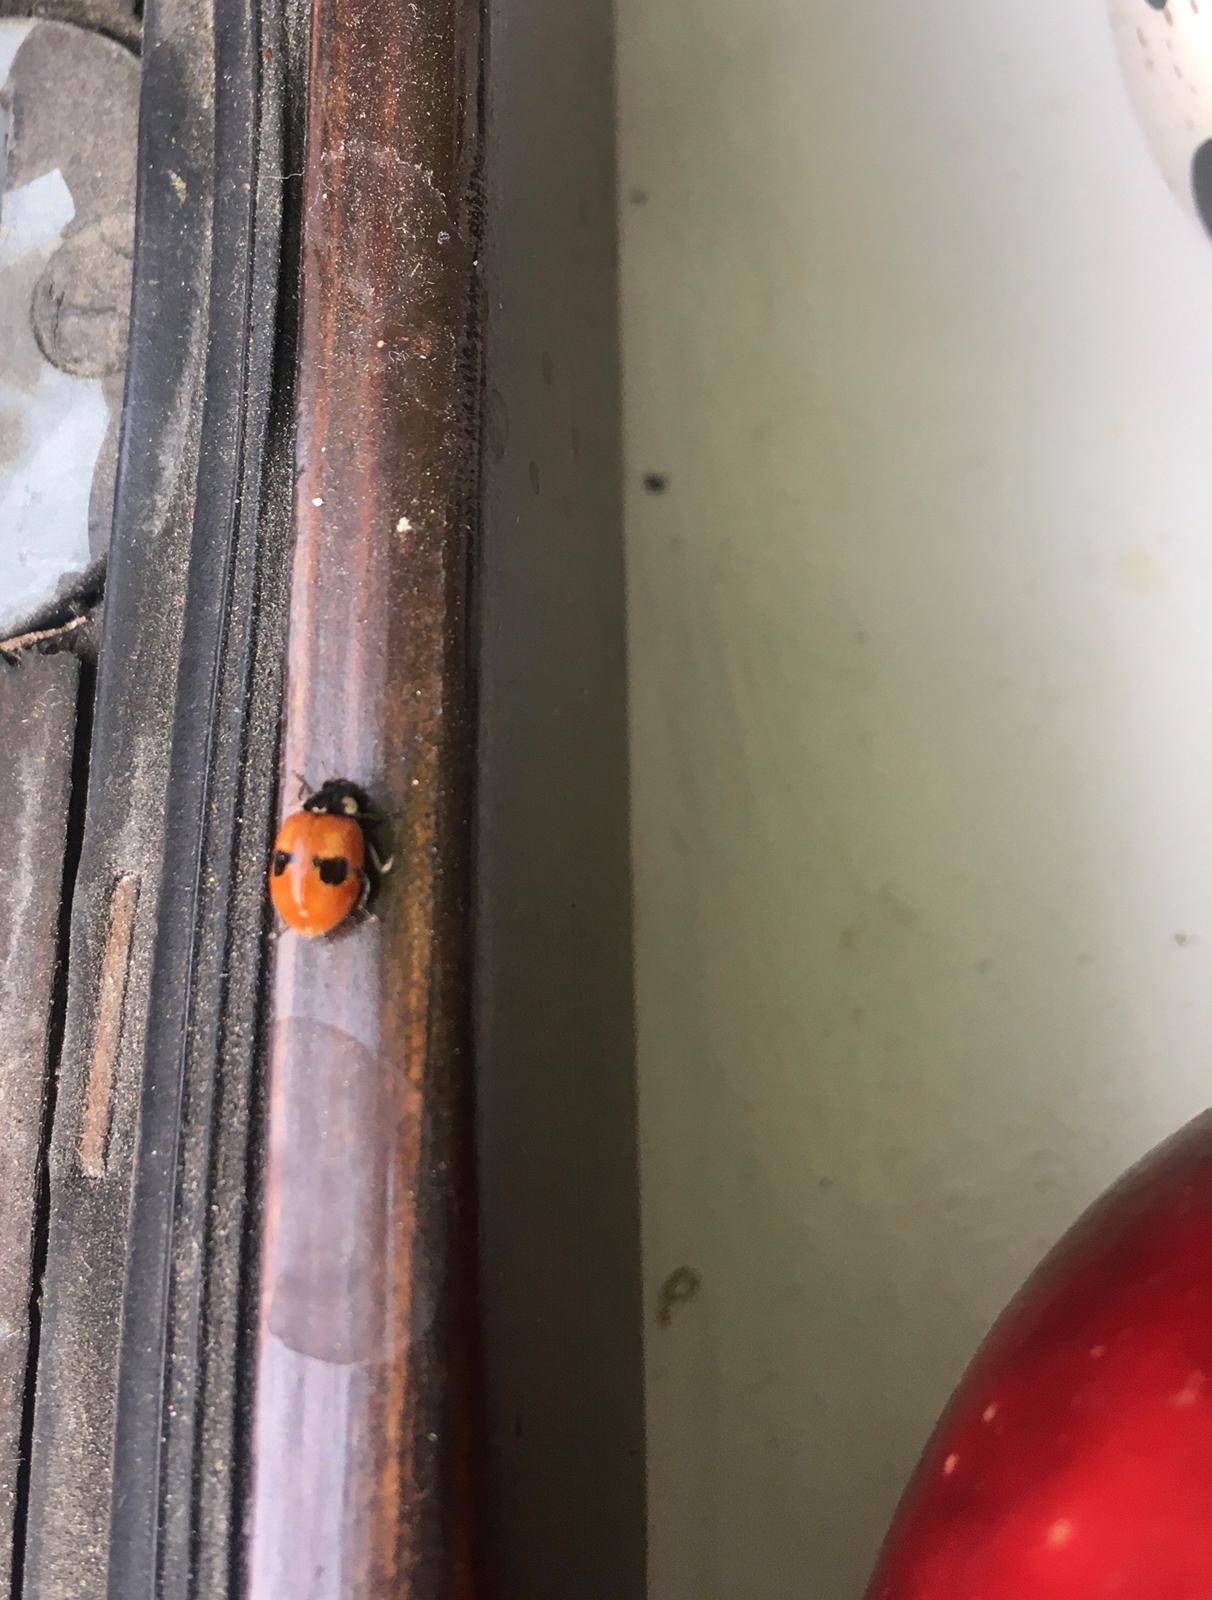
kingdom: Animalia
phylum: Arthropoda
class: Insecta
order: Coleoptera
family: Coccinellidae
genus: Adalia
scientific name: Adalia bipunctata
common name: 2-spot ladybird
